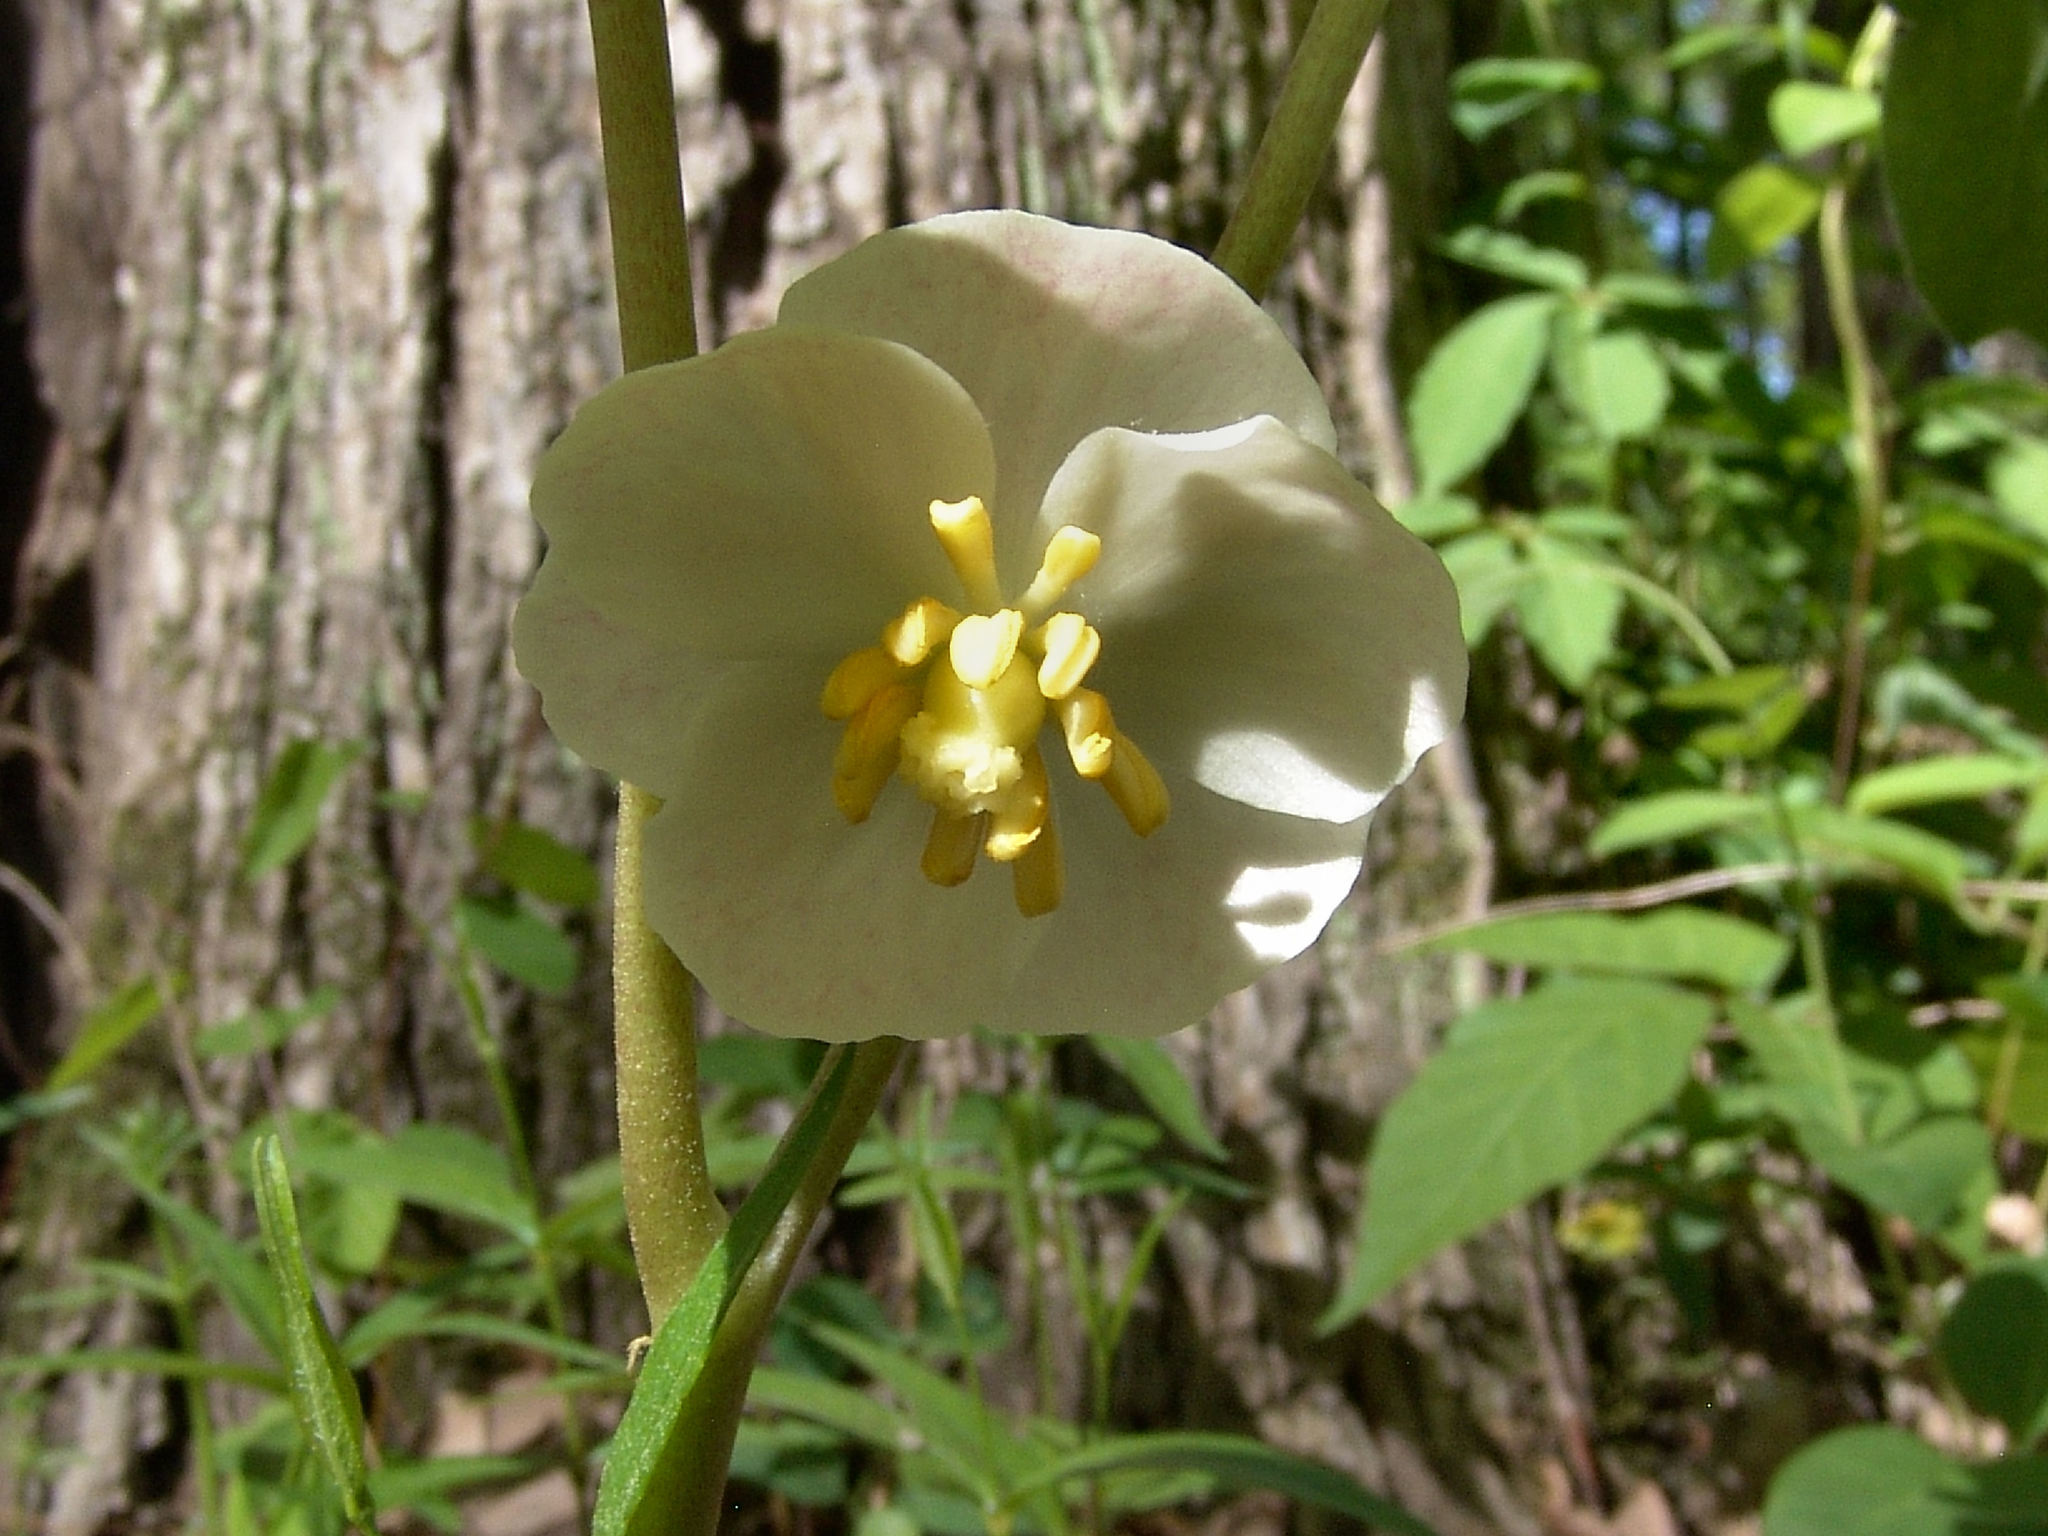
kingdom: Plantae
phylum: Tracheophyta
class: Magnoliopsida
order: Ranunculales
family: Berberidaceae
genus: Podophyllum
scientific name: Podophyllum peltatum
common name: Wild mandrake
